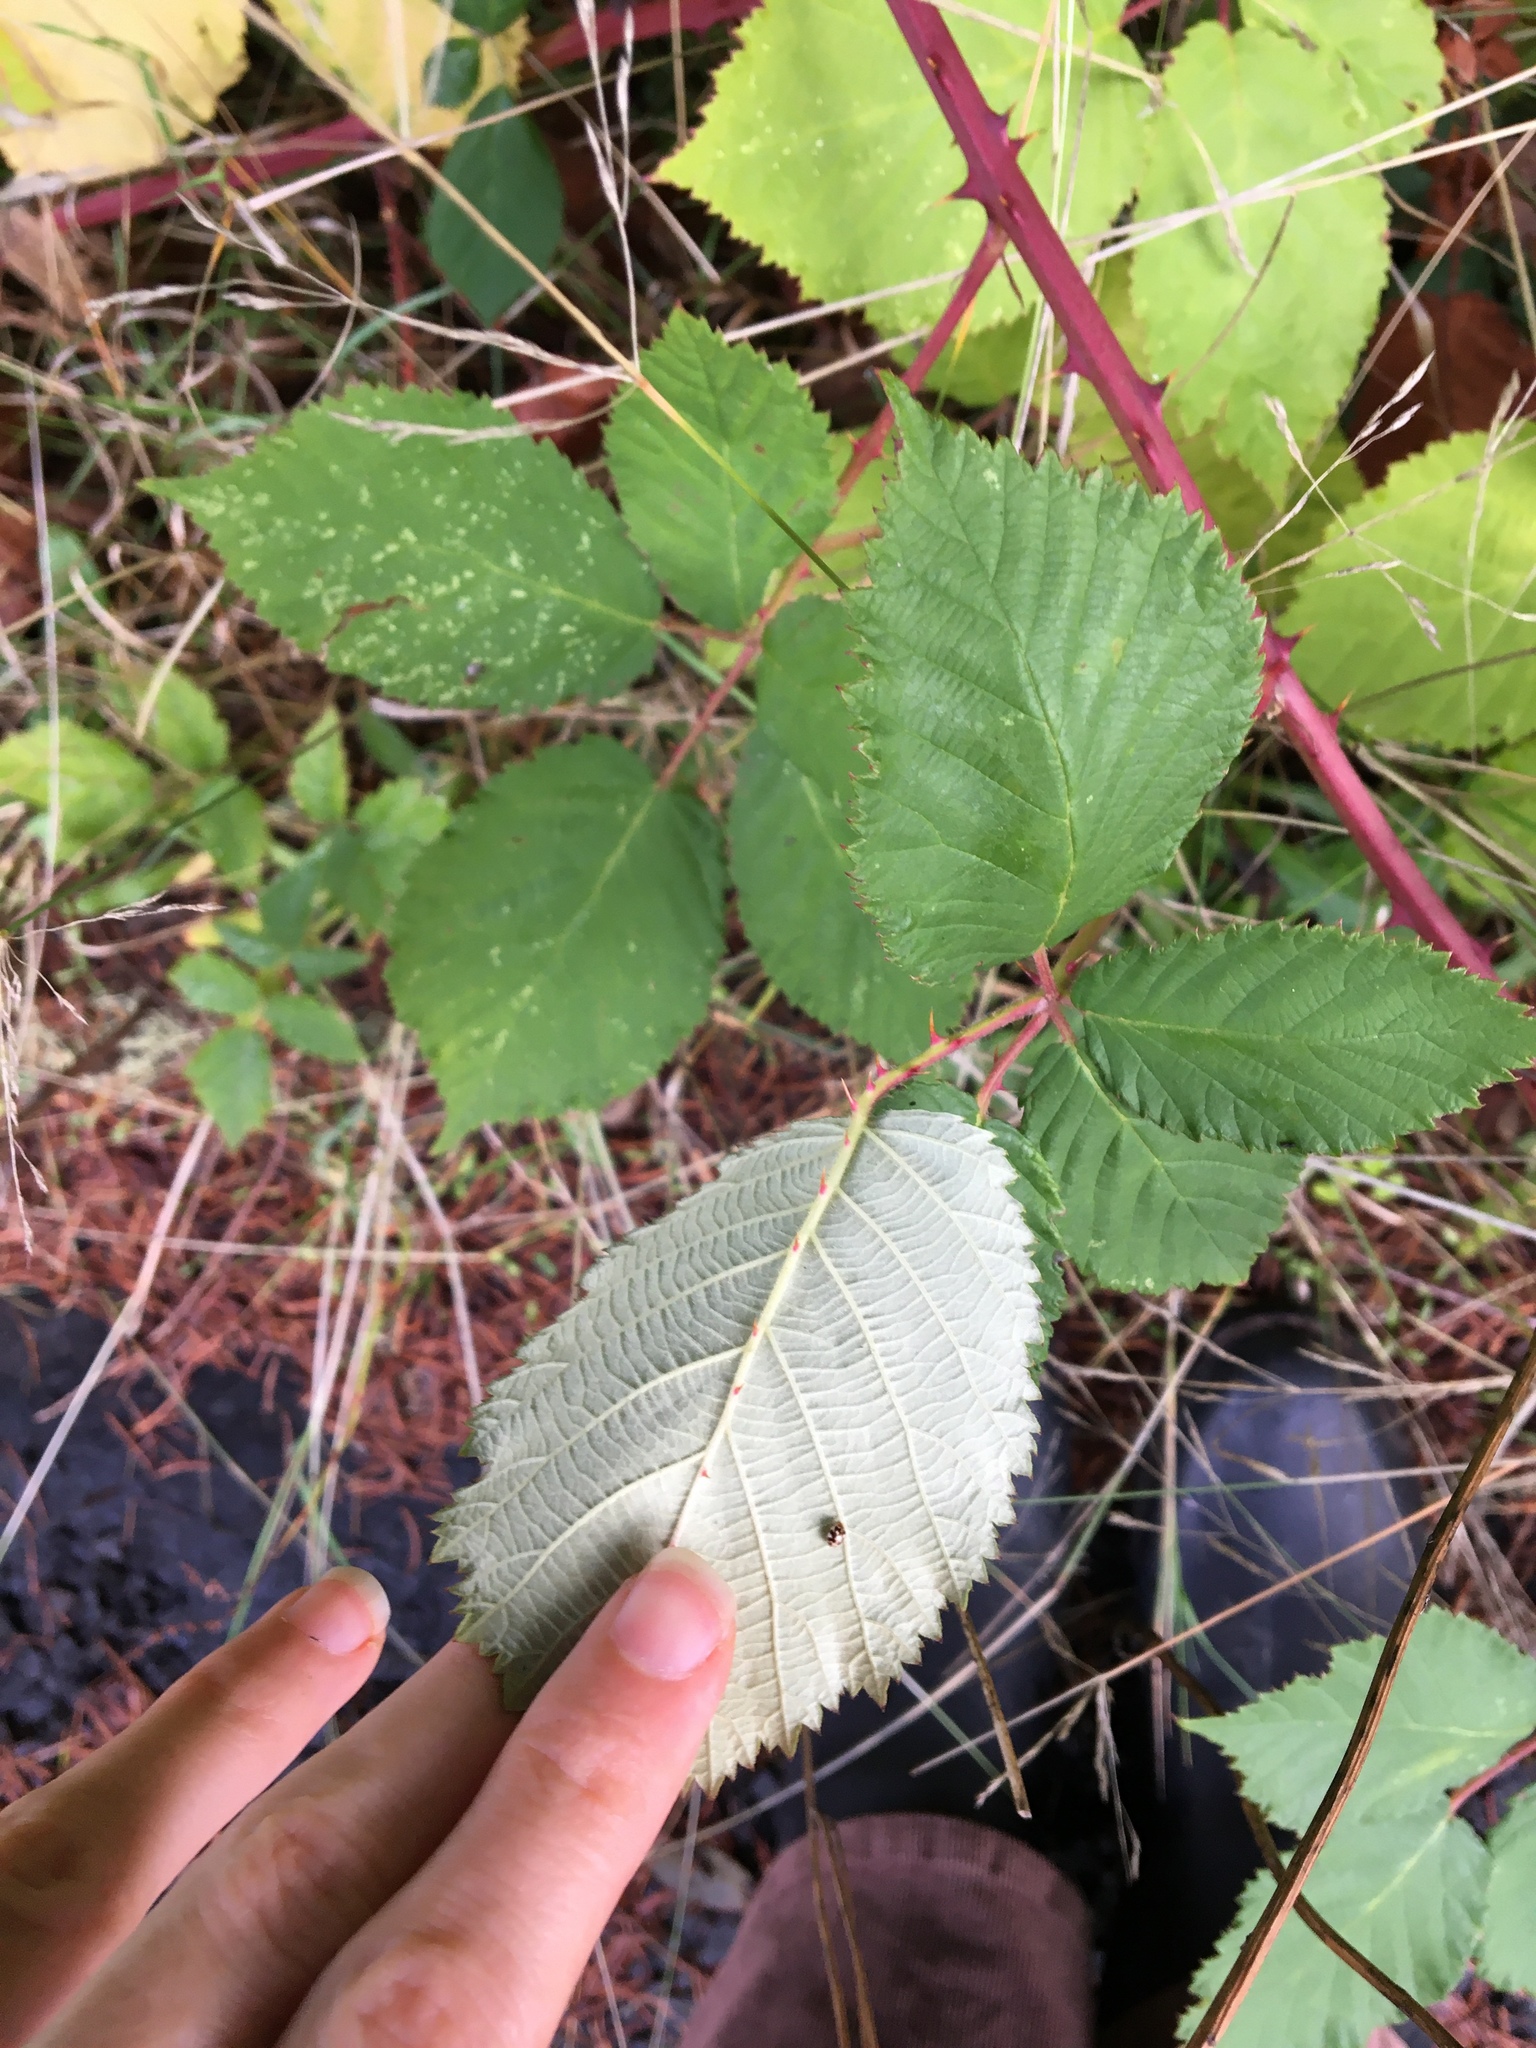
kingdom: Plantae
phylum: Tracheophyta
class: Magnoliopsida
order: Rosales
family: Rosaceae
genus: Rubus
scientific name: Rubus bifrons
